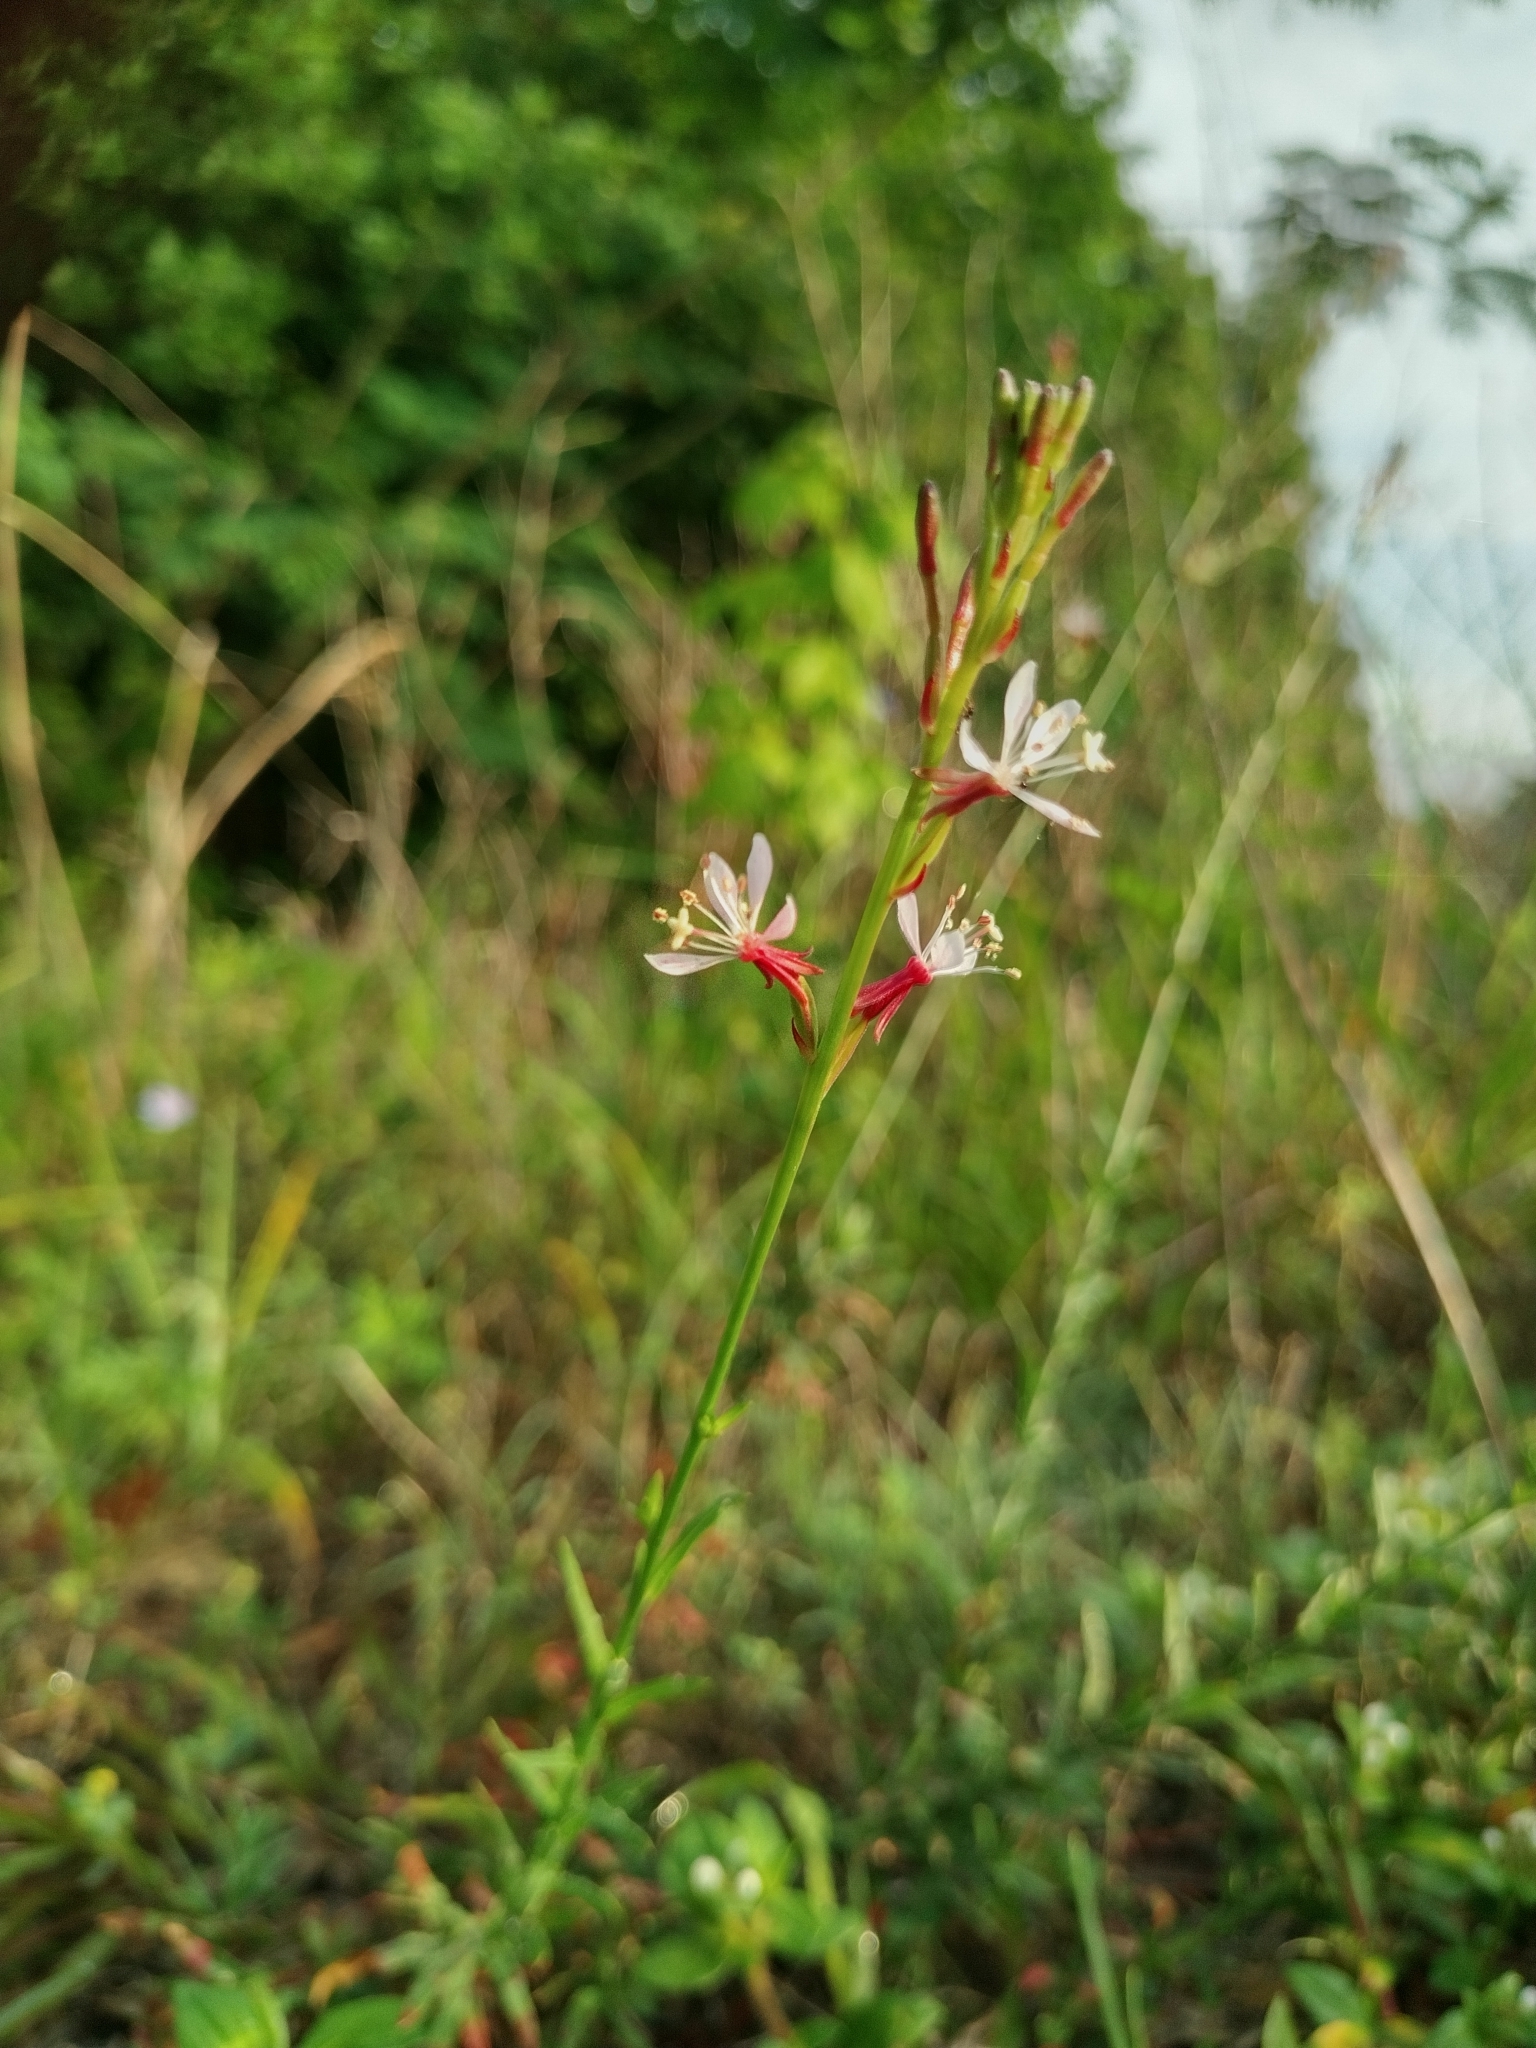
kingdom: Plantae
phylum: Tracheophyta
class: Magnoliopsida
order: Myrtales
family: Onagraceae
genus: Oenothera
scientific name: Oenothera simulans
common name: Southern beeblossom
